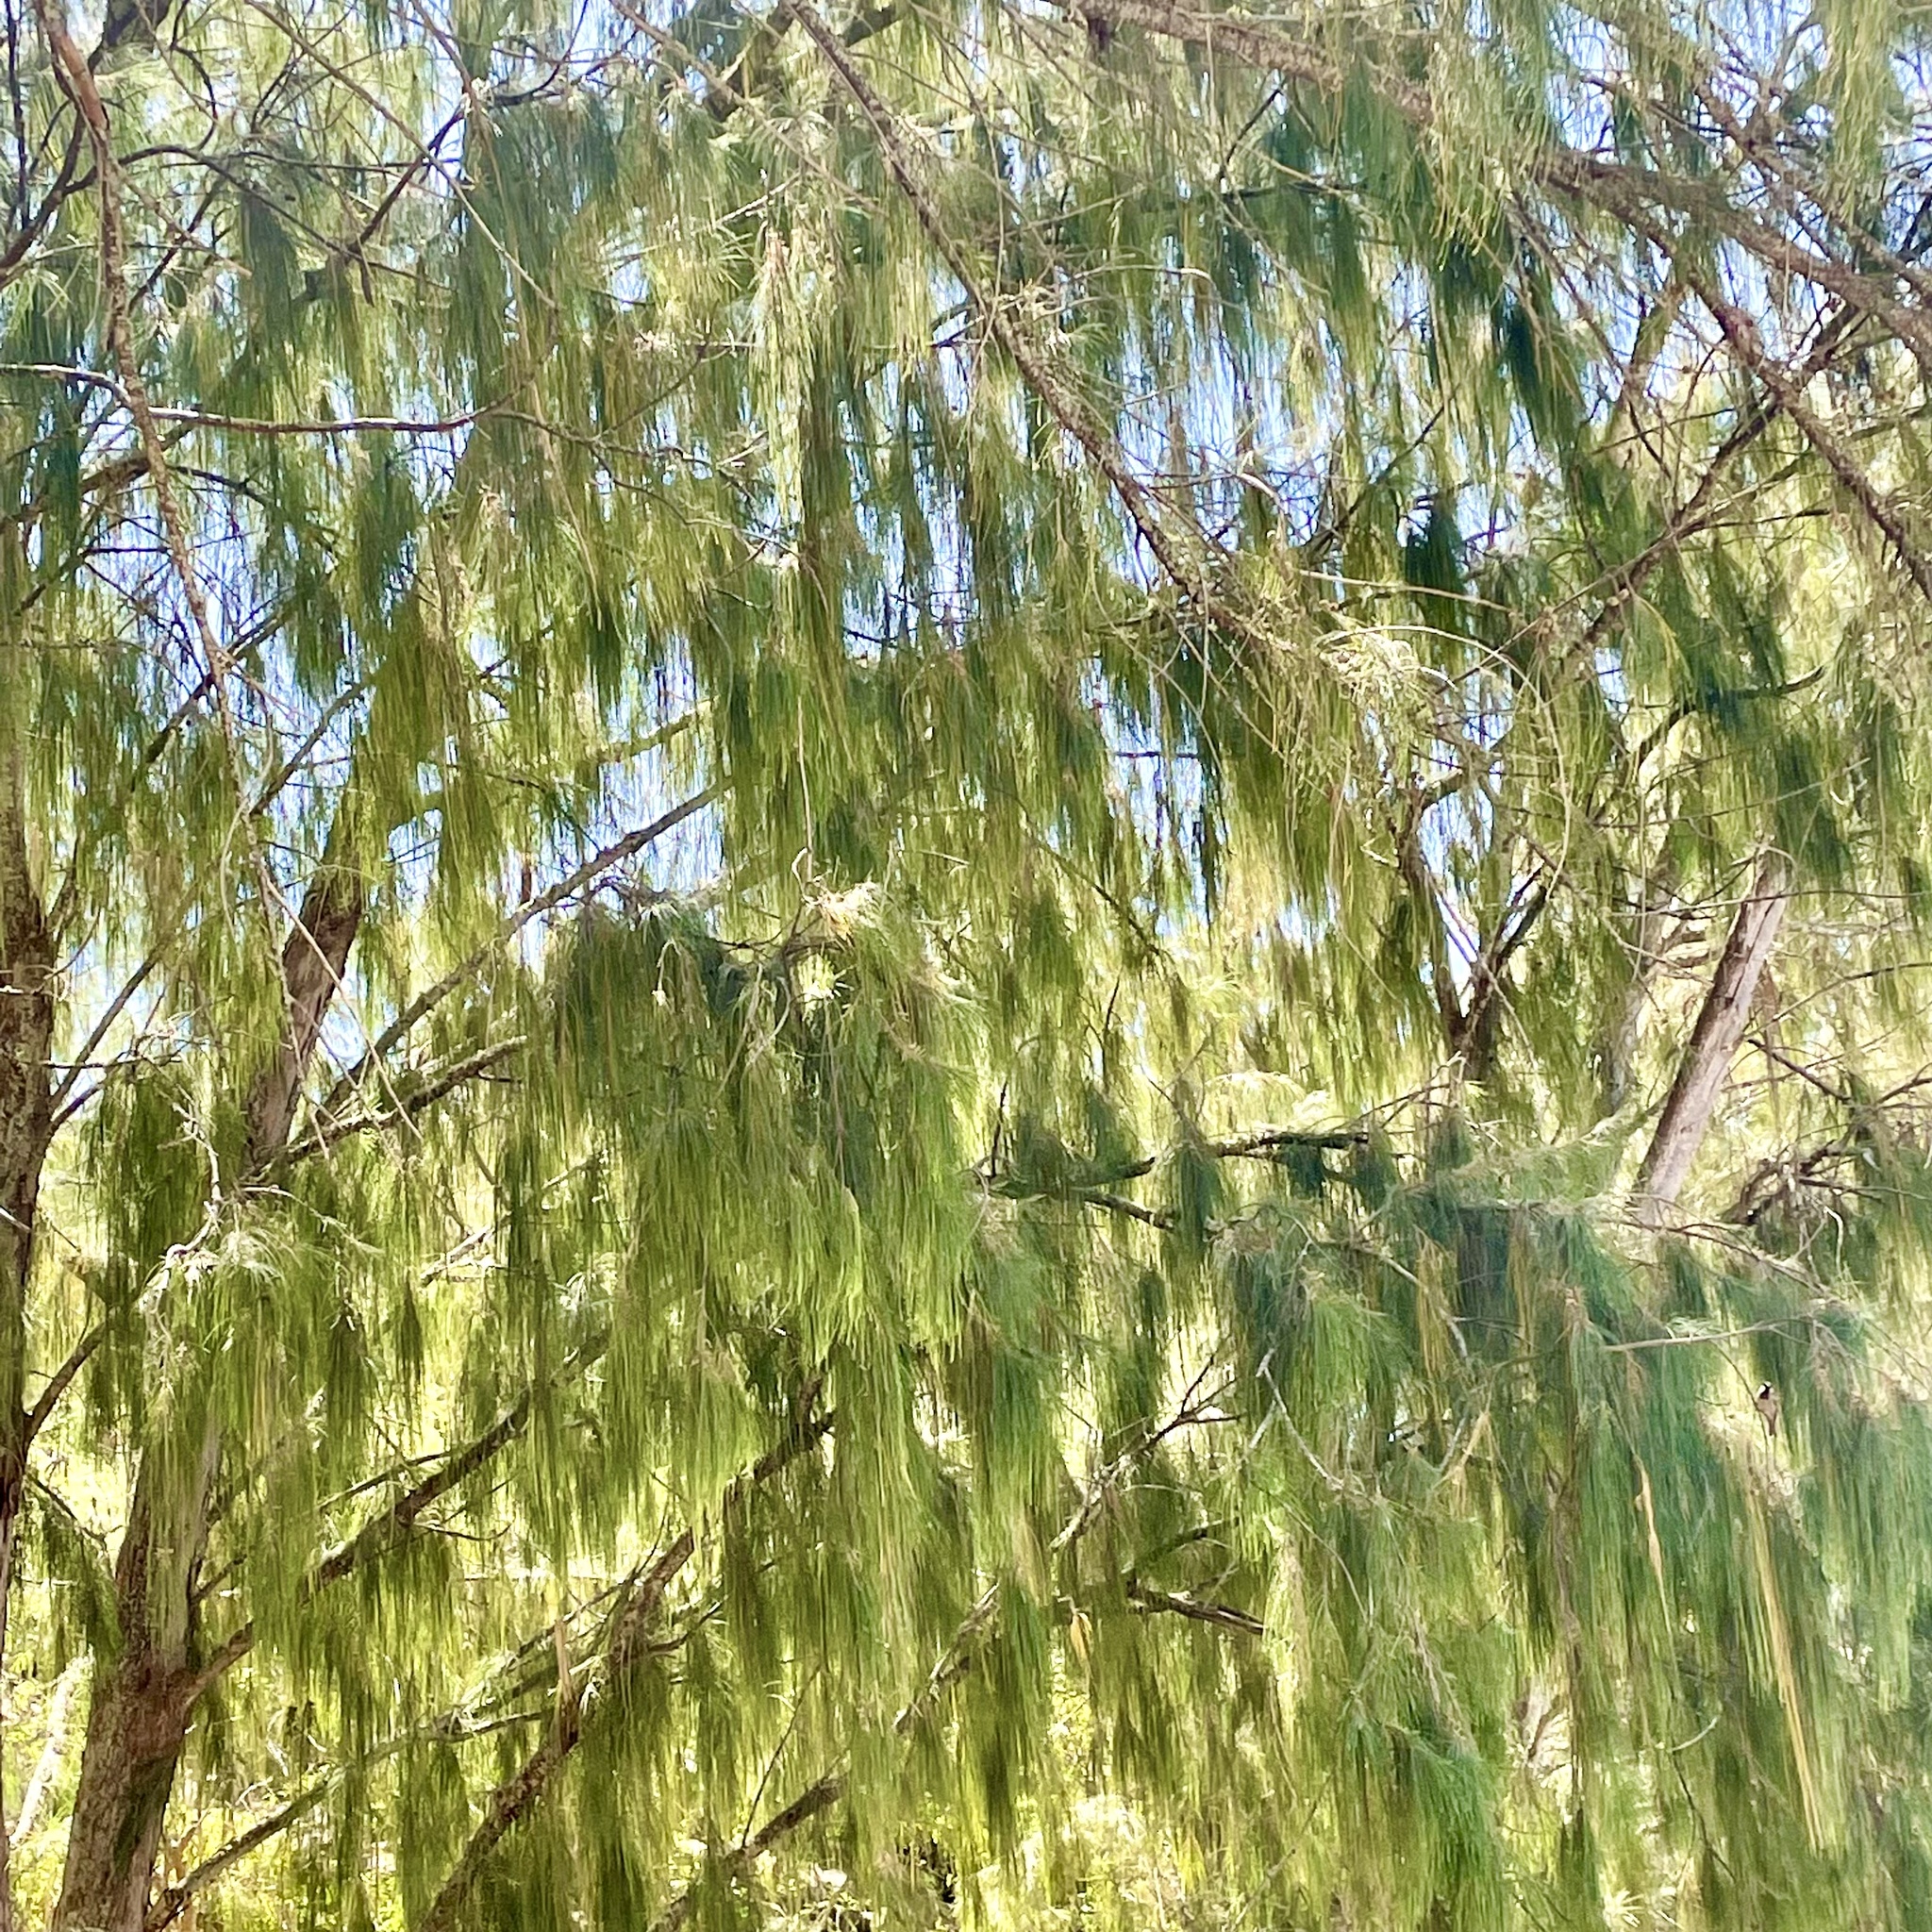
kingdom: Plantae
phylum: Tracheophyta
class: Magnoliopsida
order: Fagales
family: Casuarinaceae
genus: Casuarina
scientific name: Casuarina equisetifolia
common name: Beach sheoak
